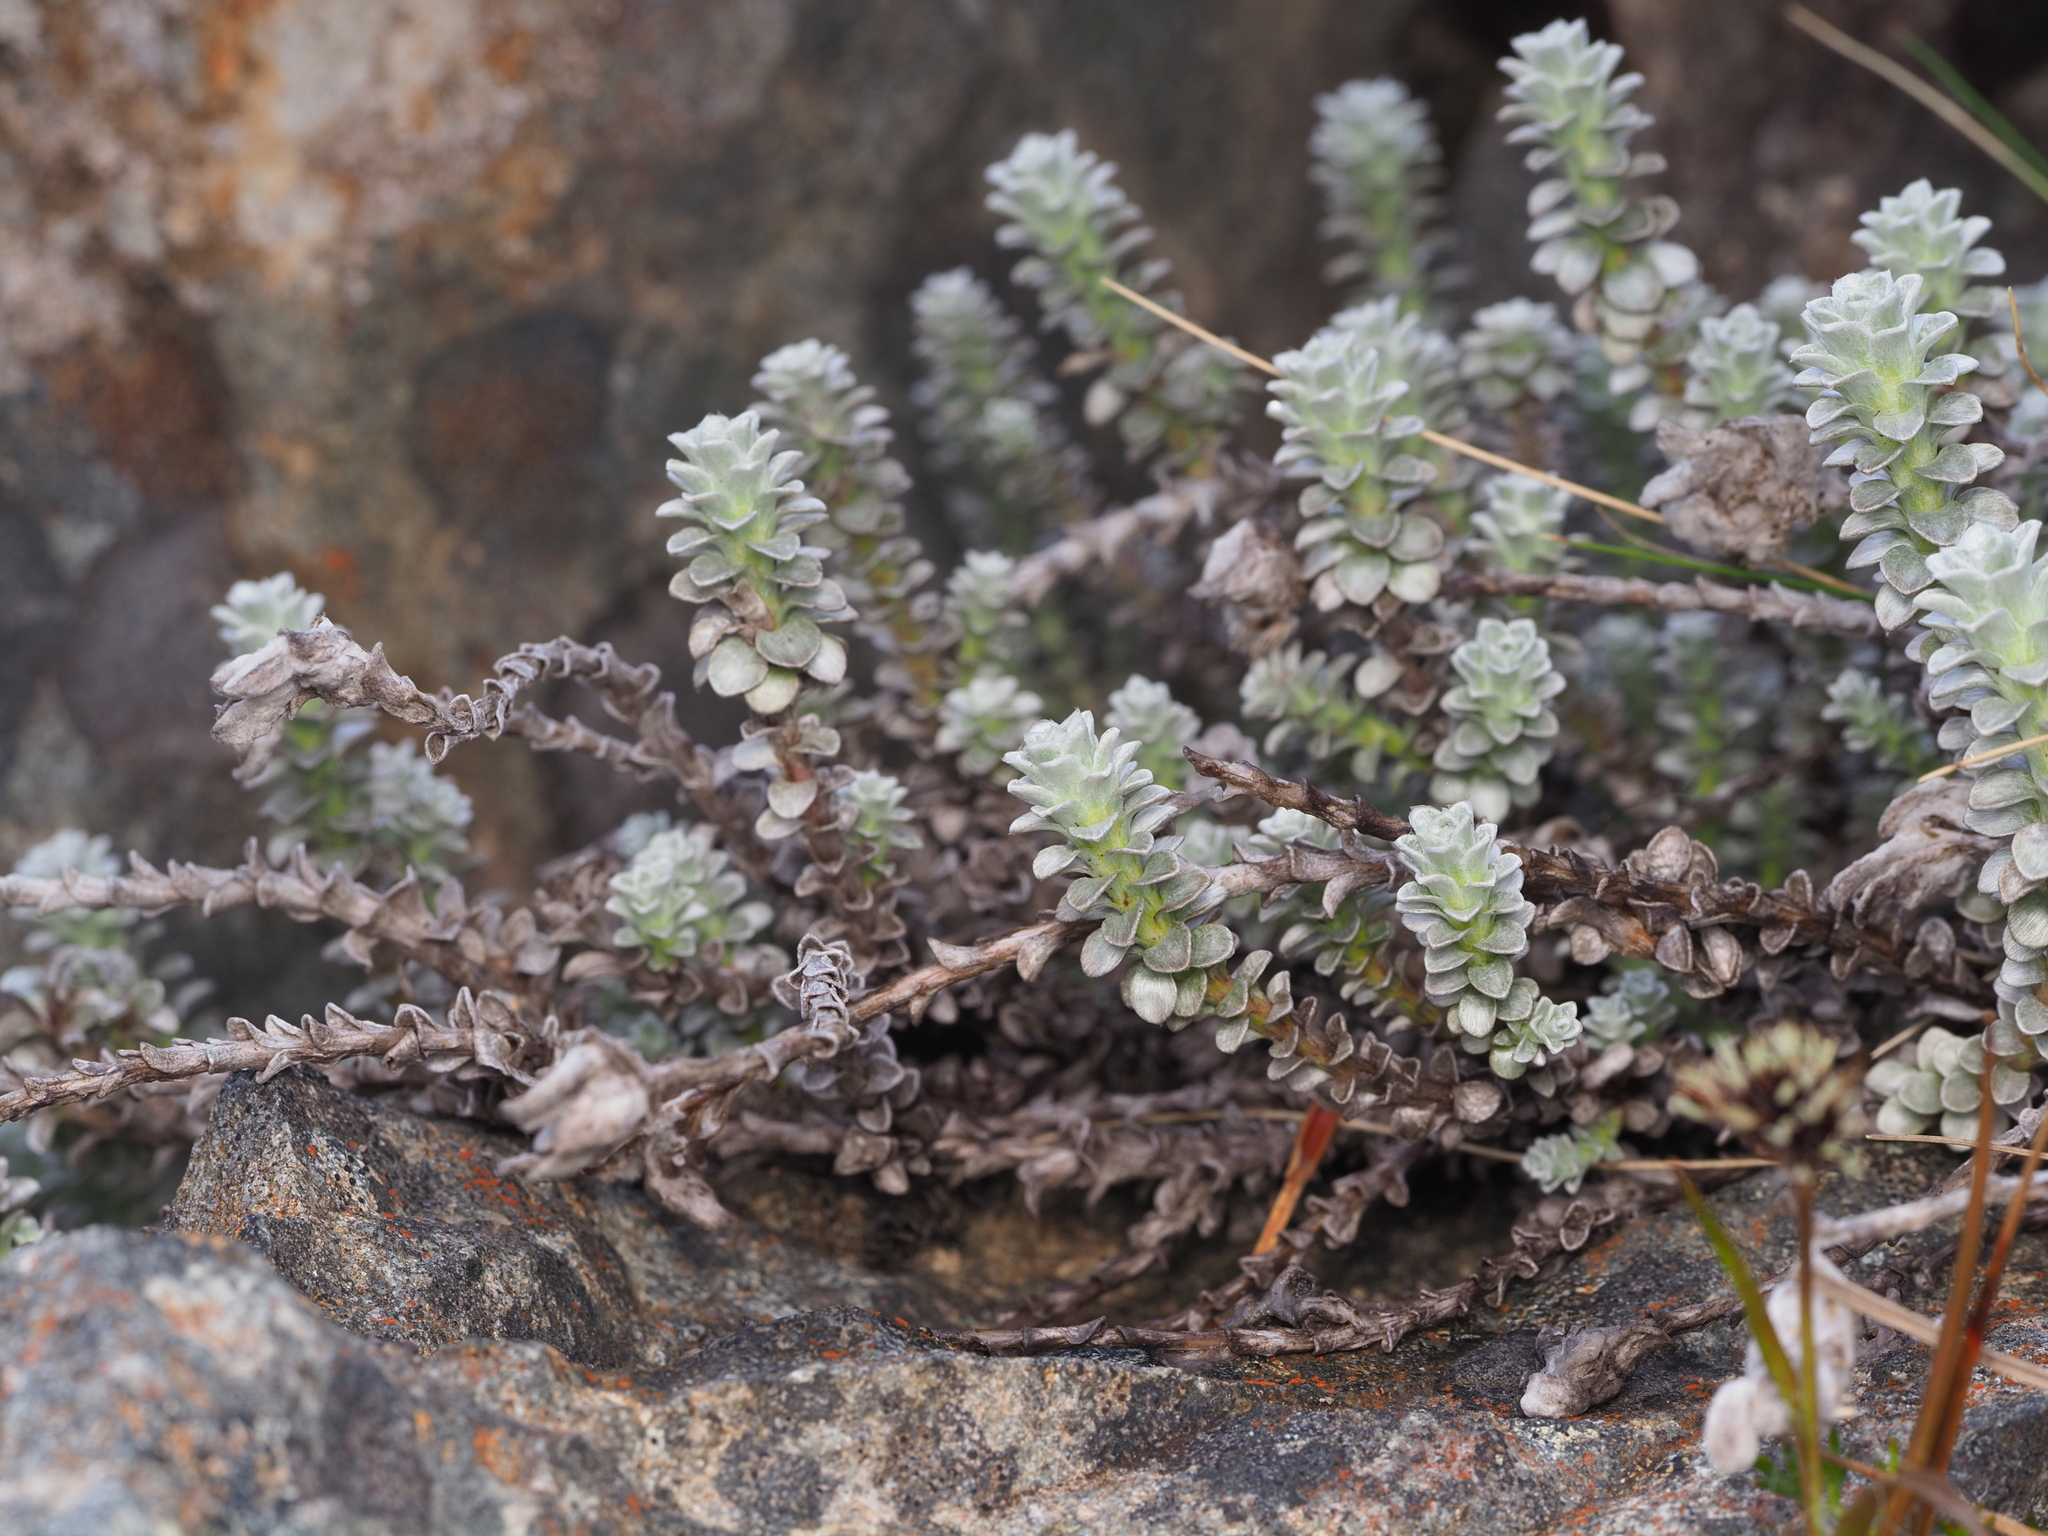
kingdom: Plantae
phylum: Tracheophyta
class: Magnoliopsida
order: Asterales
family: Asteraceae
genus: Leucogenes
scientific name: Leucogenes grandiceps
